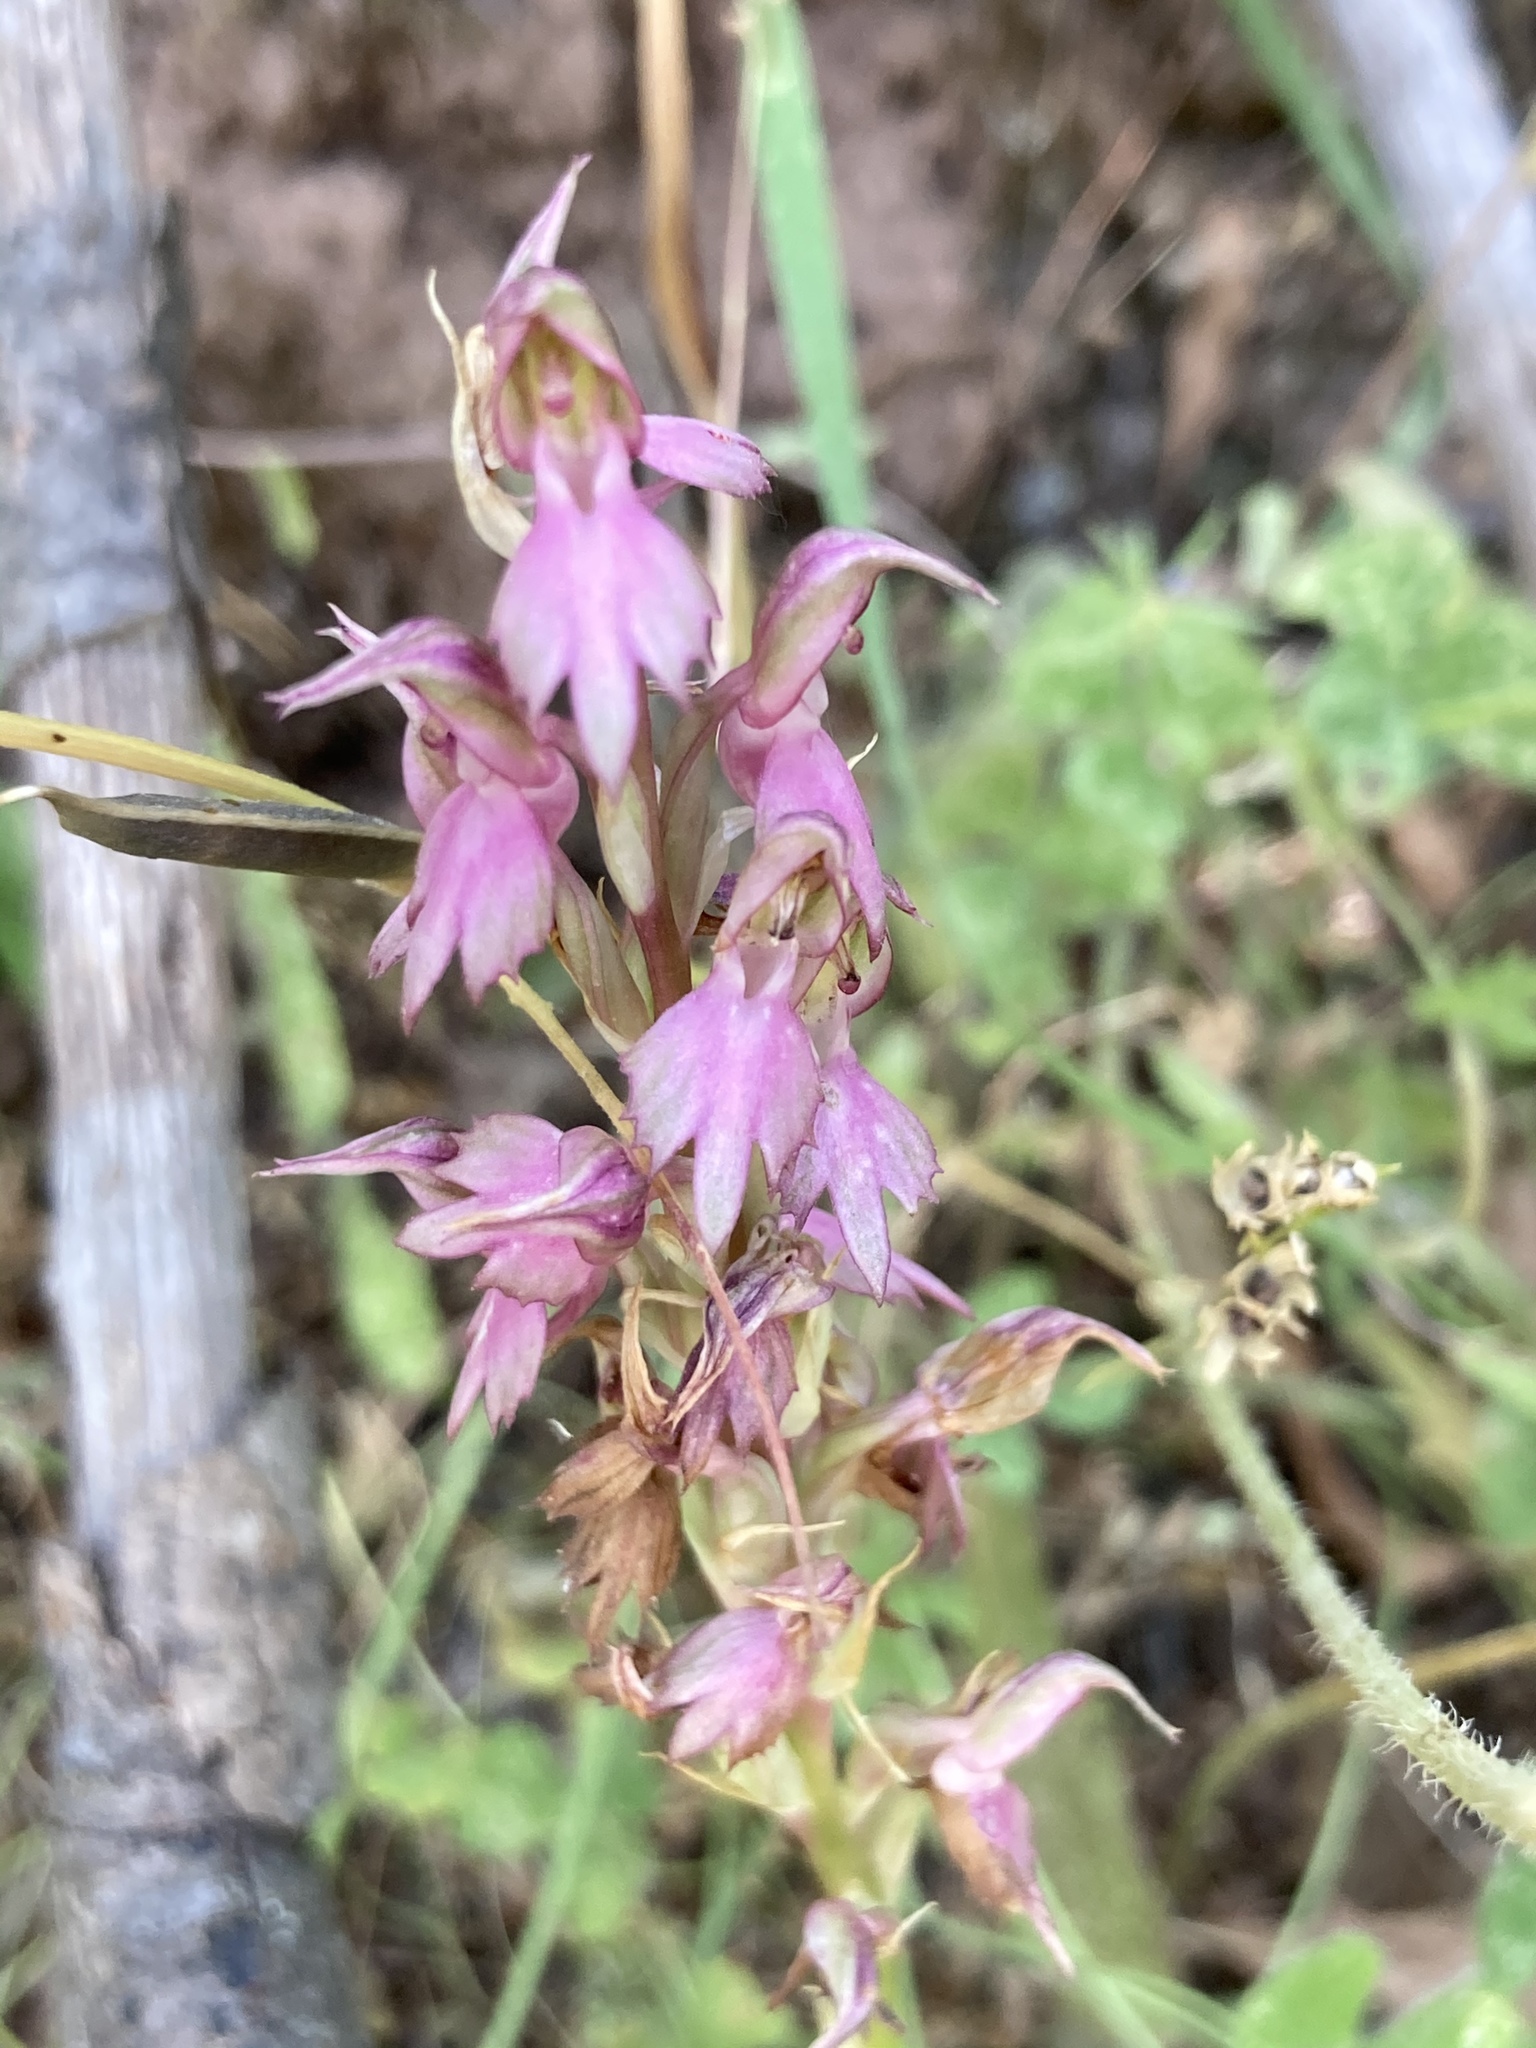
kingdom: Plantae
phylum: Tracheophyta
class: Liliopsida
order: Asparagales
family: Orchidaceae
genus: Anacamptis
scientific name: Anacamptis sancta
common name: Holy orchid
